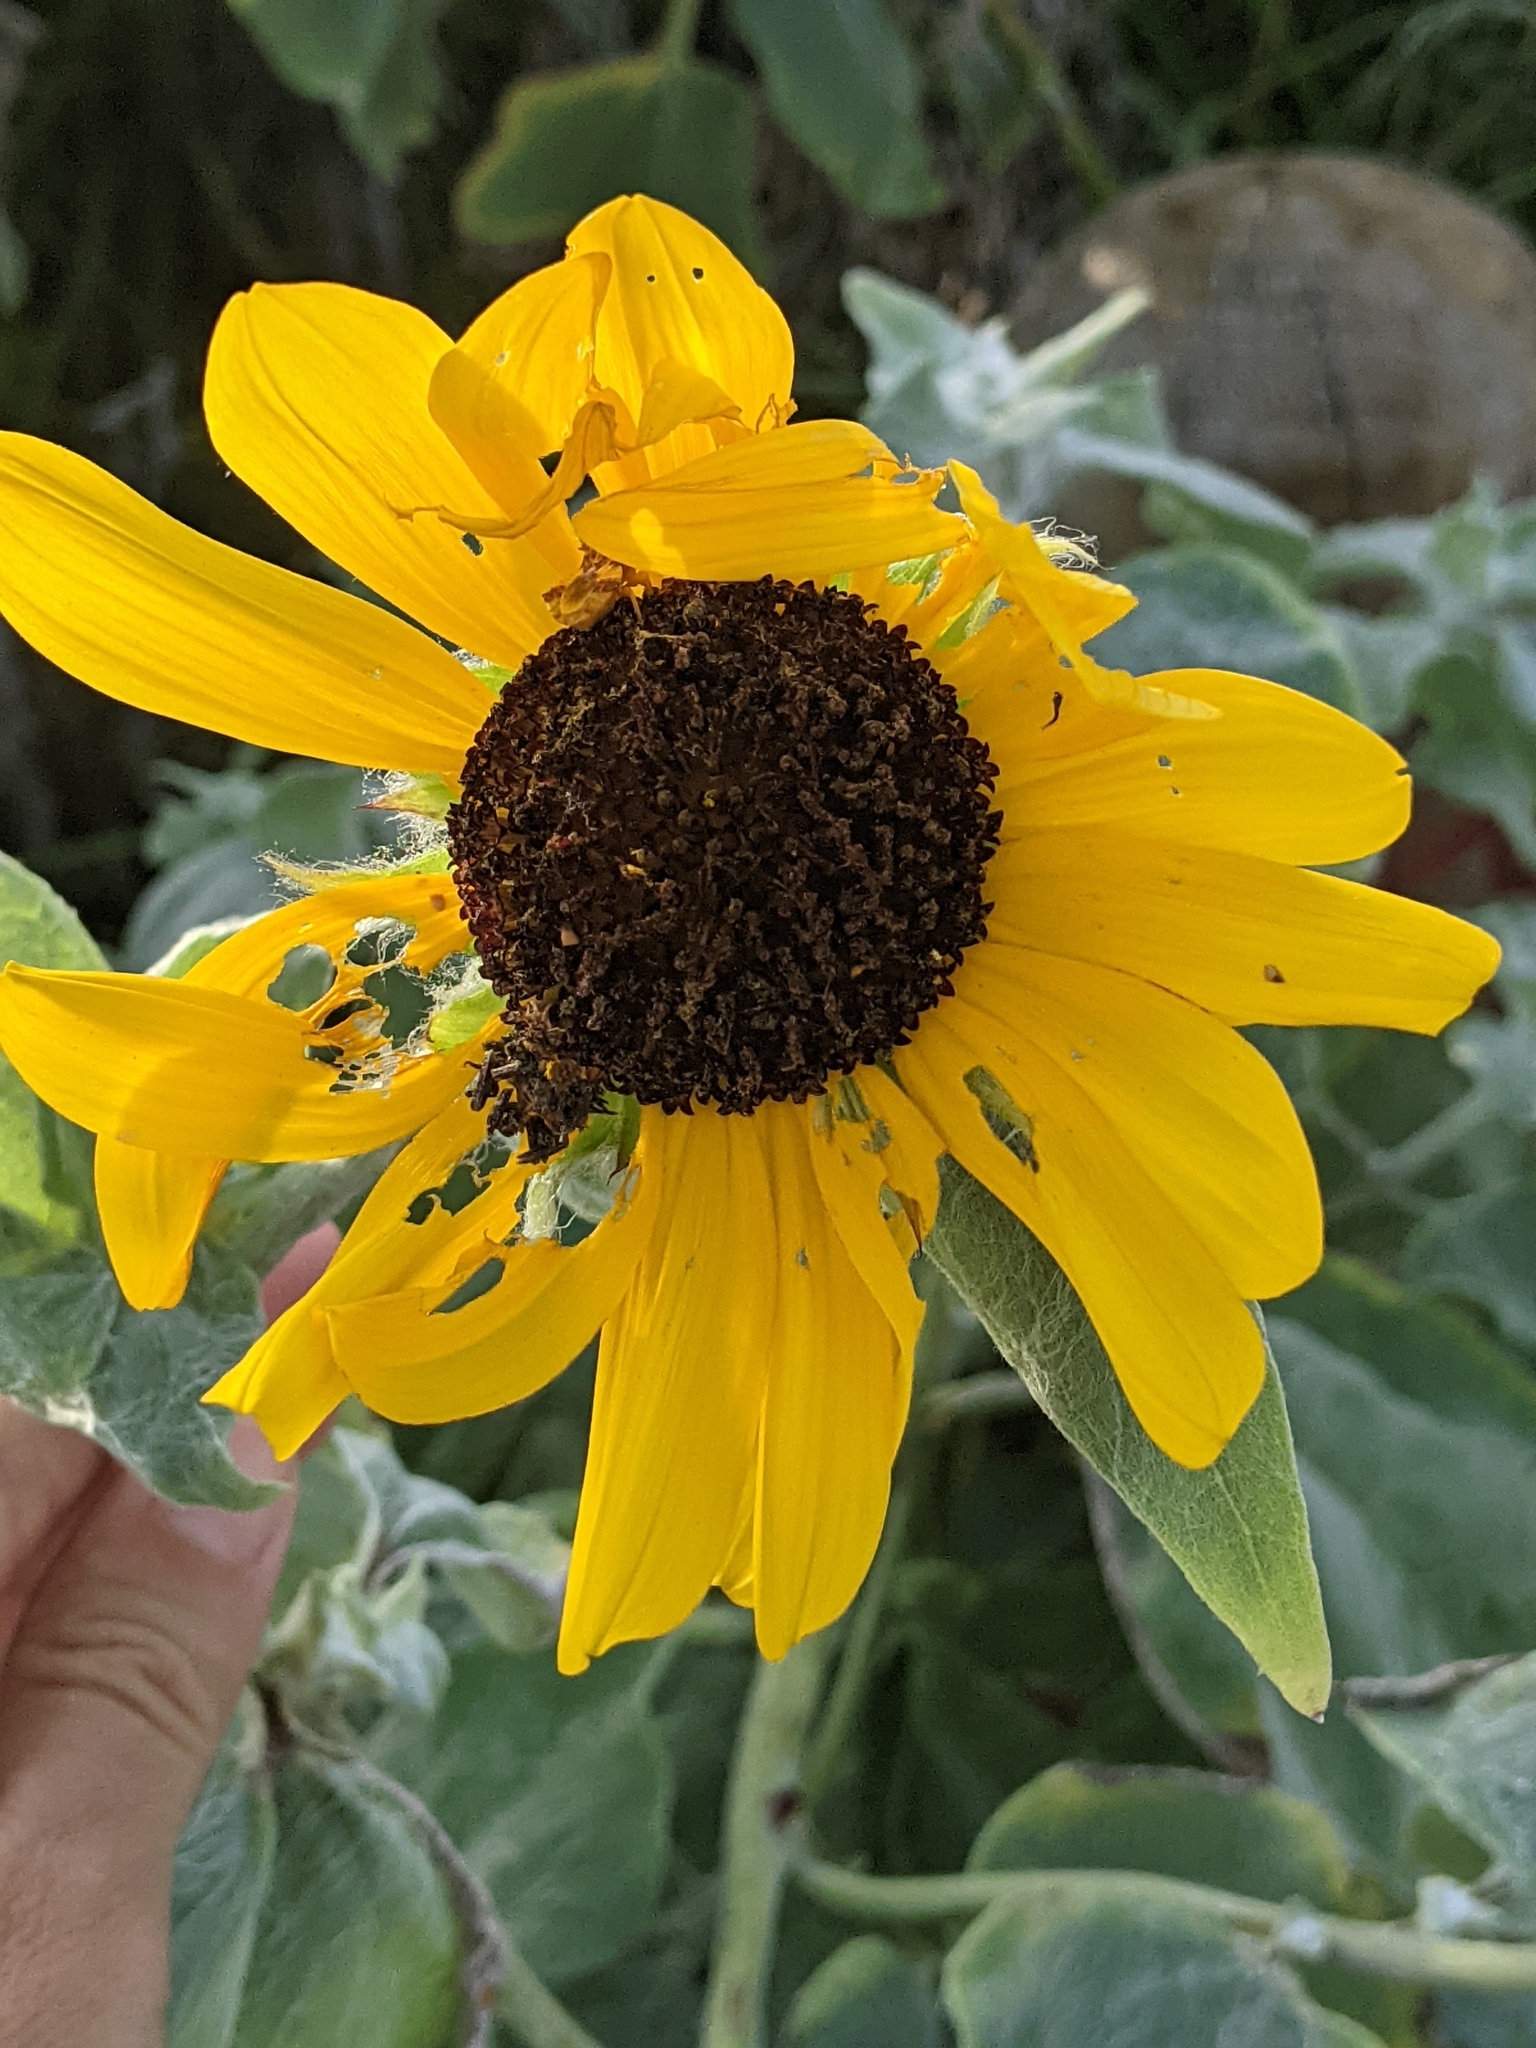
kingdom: Plantae
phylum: Tracheophyta
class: Magnoliopsida
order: Asterales
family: Asteraceae
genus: Helianthus
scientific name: Helianthus argophyllus
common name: Silverleaf sunflower
